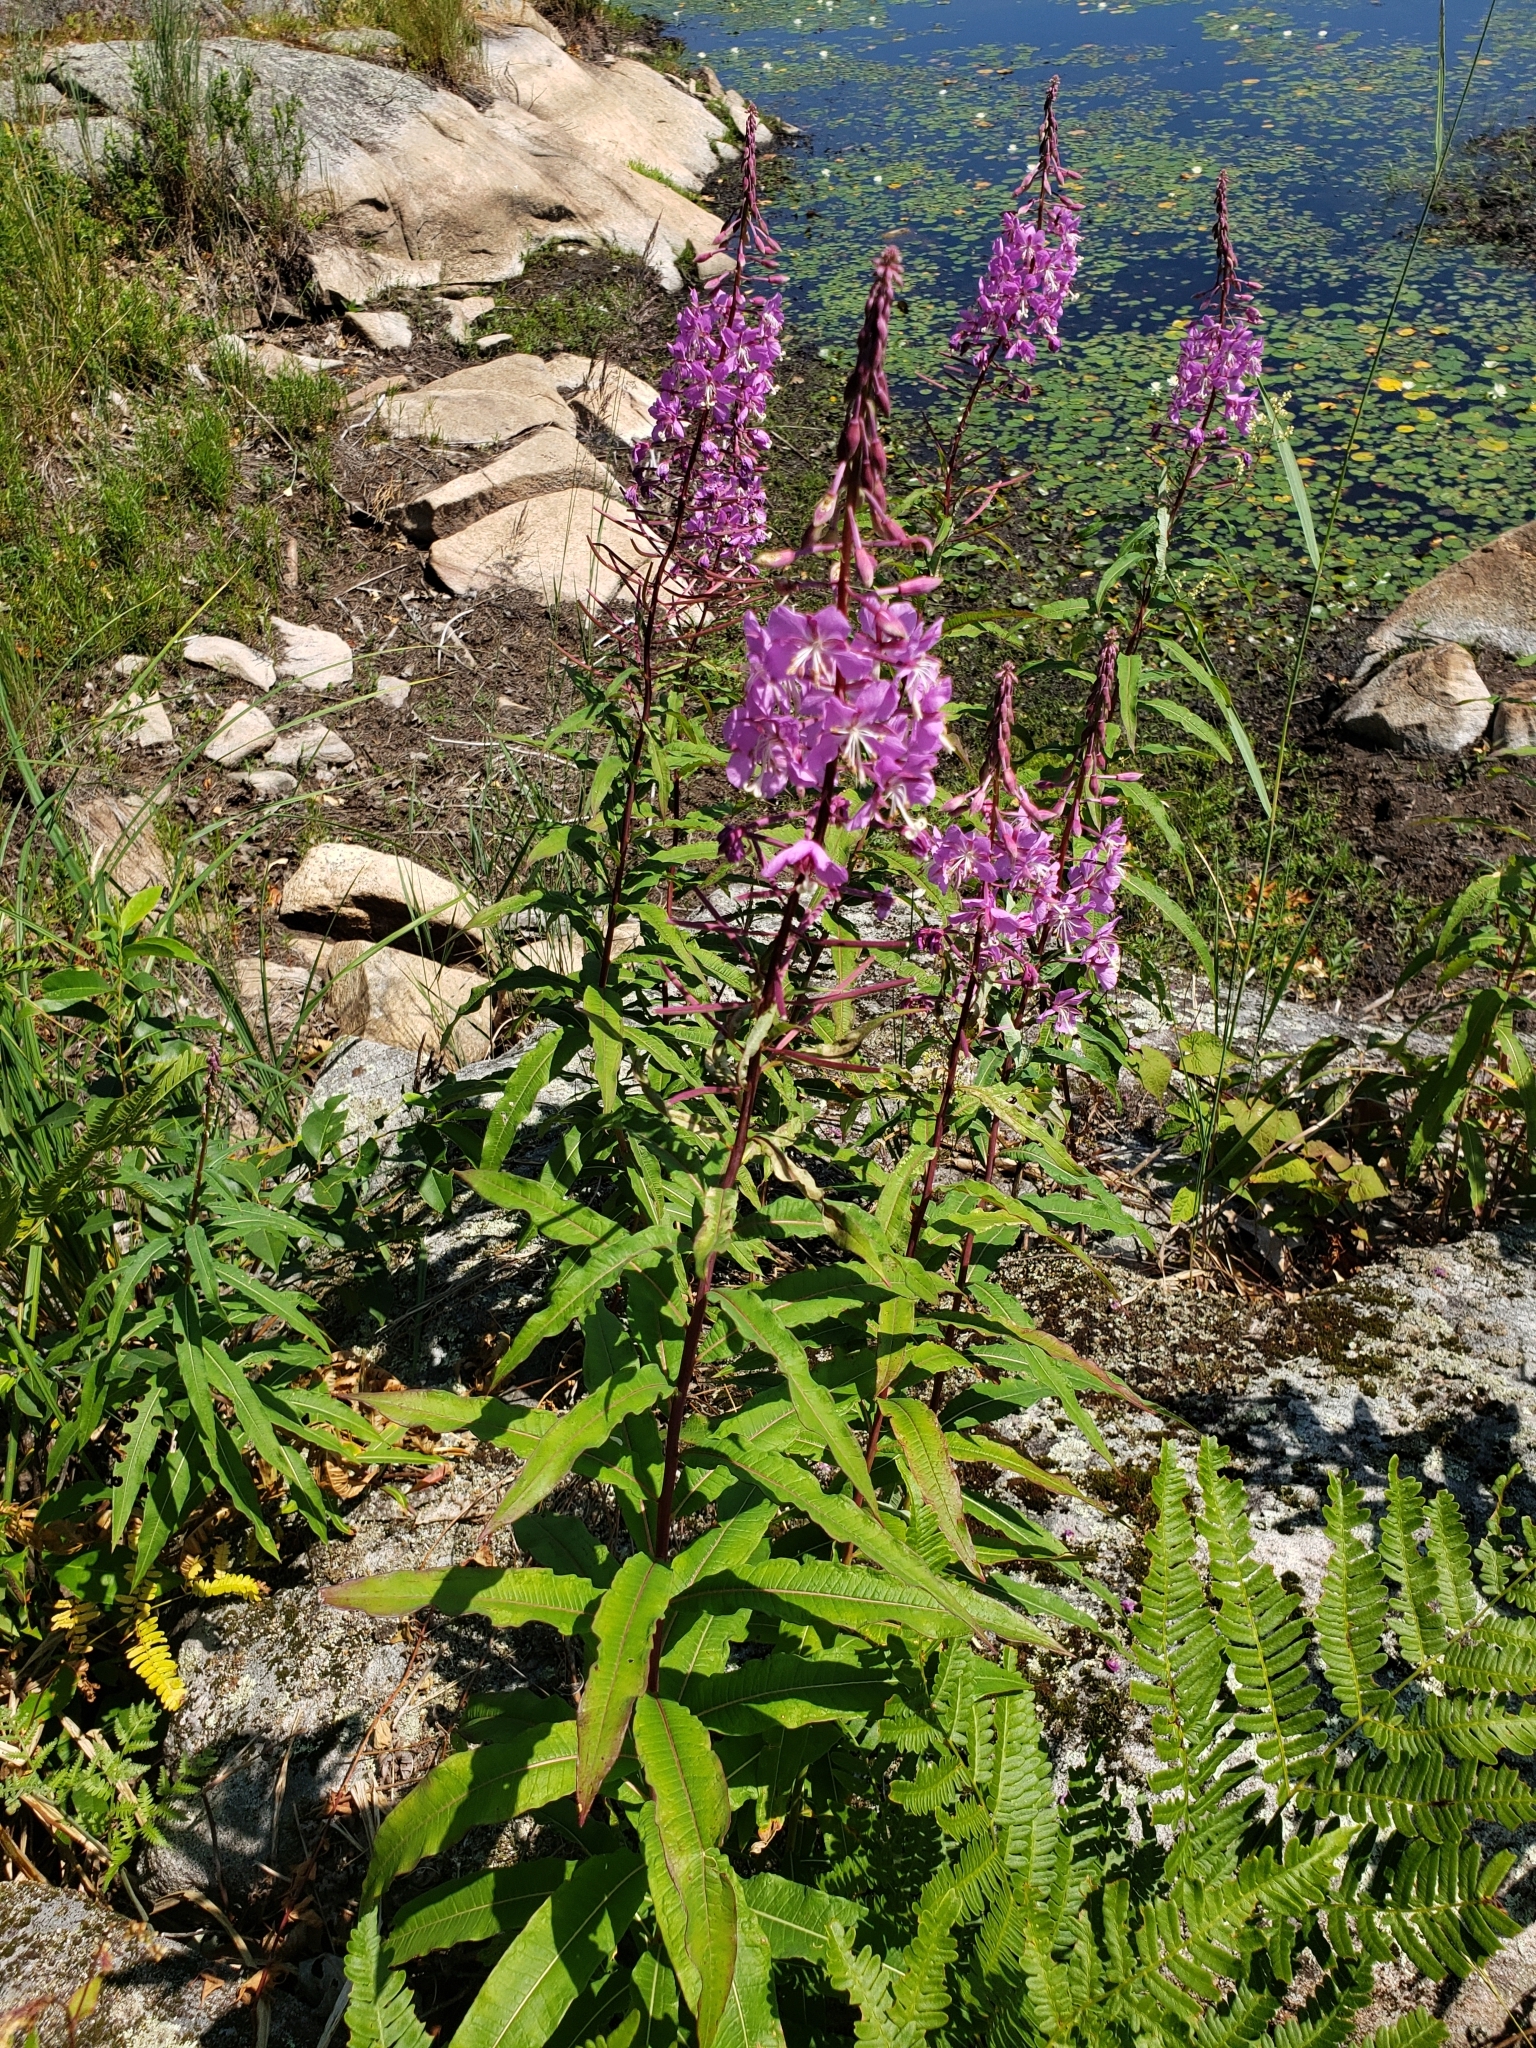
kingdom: Plantae
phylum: Tracheophyta
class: Magnoliopsida
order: Myrtales
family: Onagraceae
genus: Chamaenerion
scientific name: Chamaenerion angustifolium
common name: Fireweed
